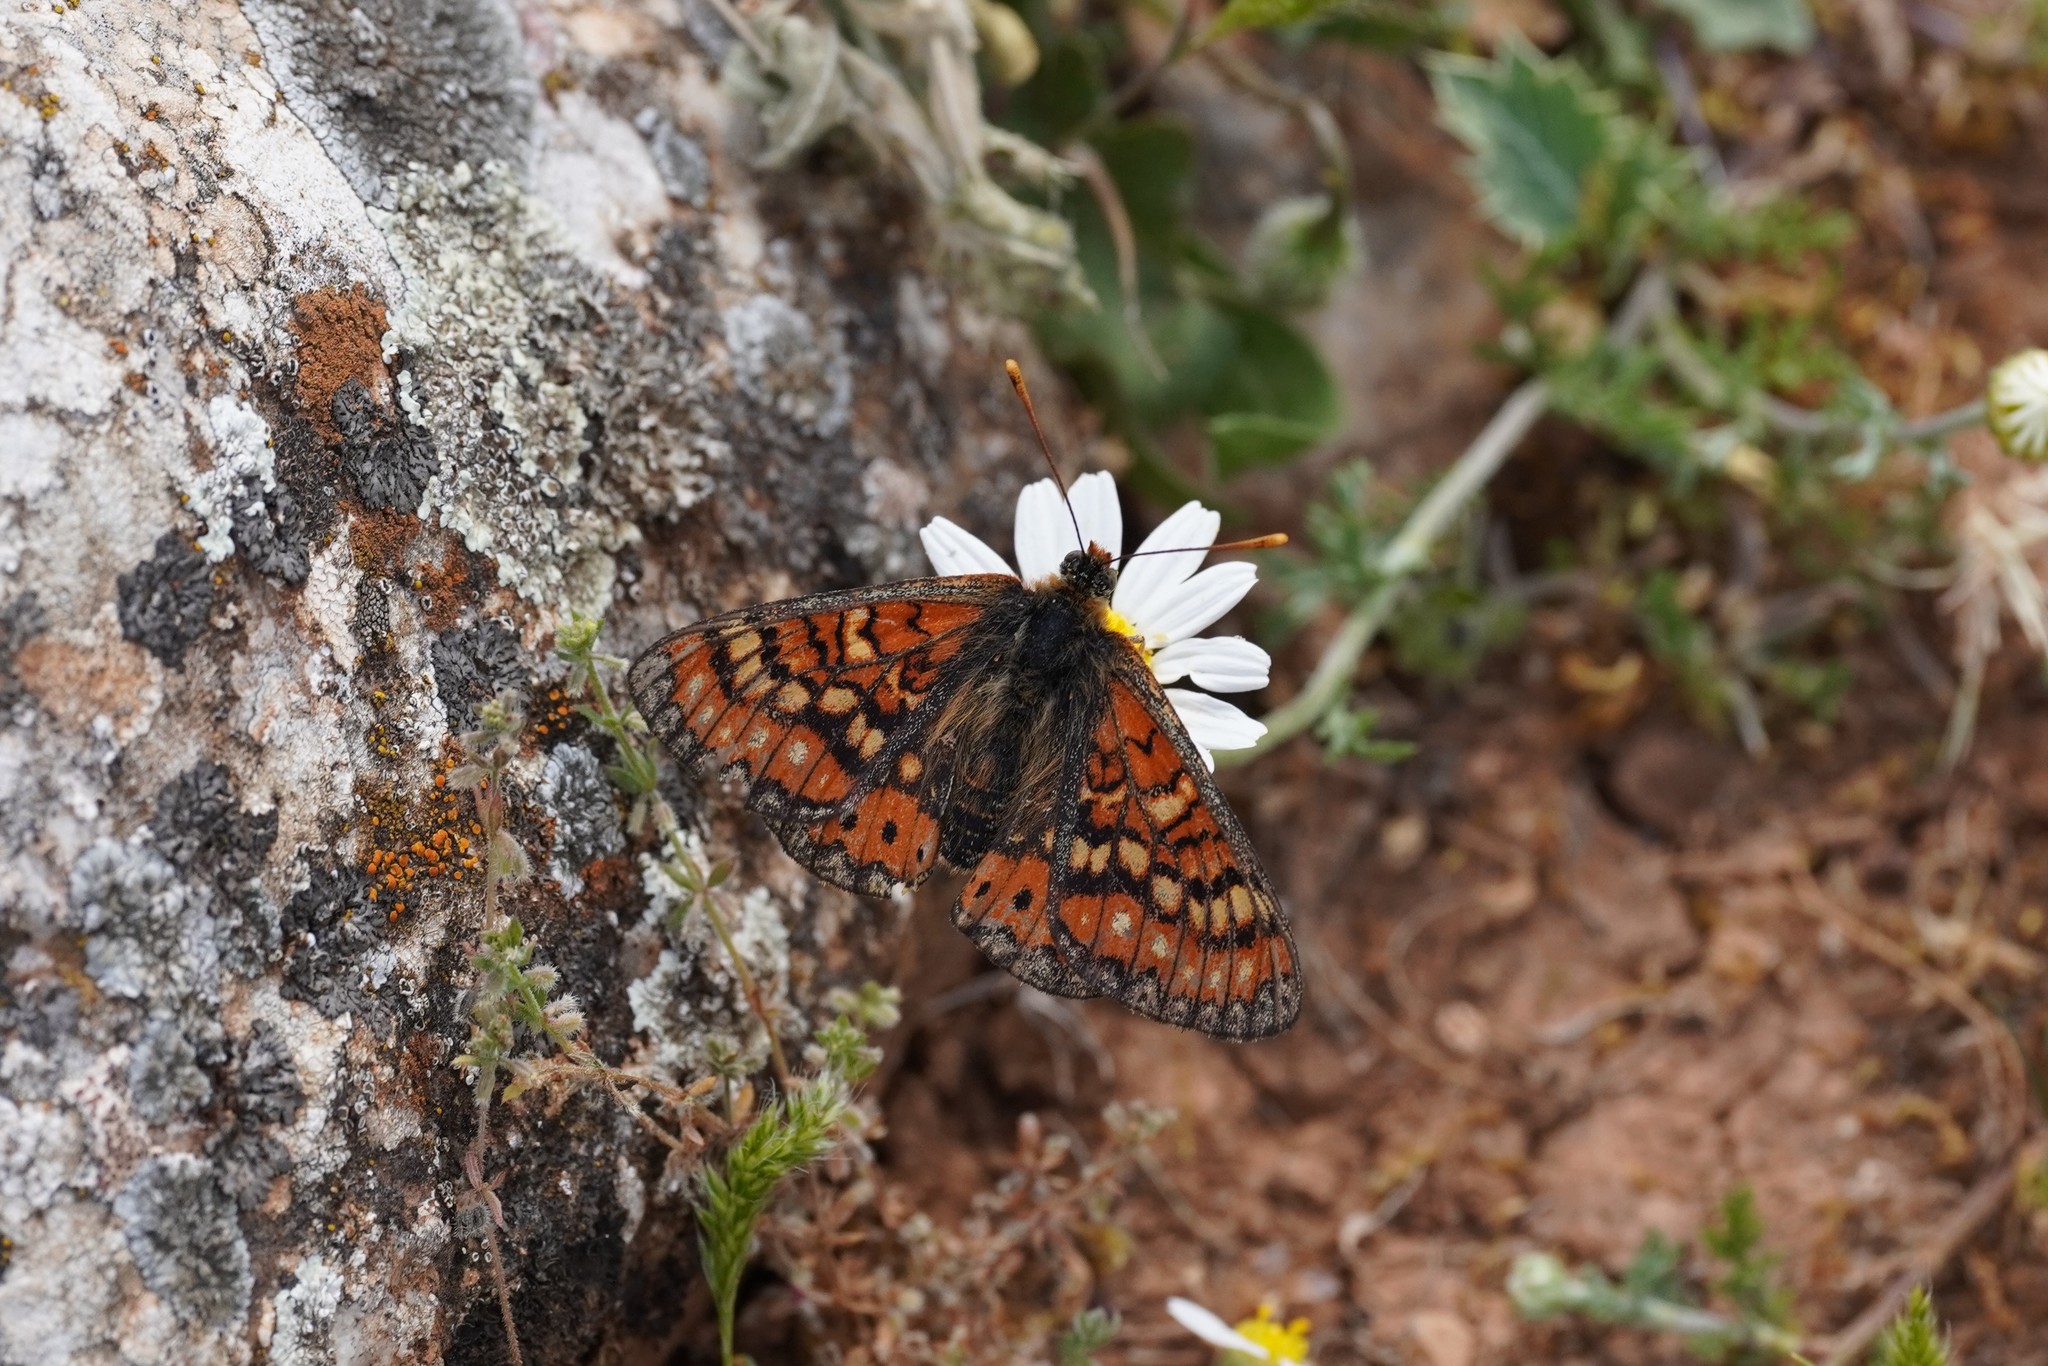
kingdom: Animalia
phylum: Arthropoda
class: Insecta
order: Lepidoptera
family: Nymphalidae
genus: Euphydryas
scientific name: Euphydryas desfontainii
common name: Spanish fritillary
